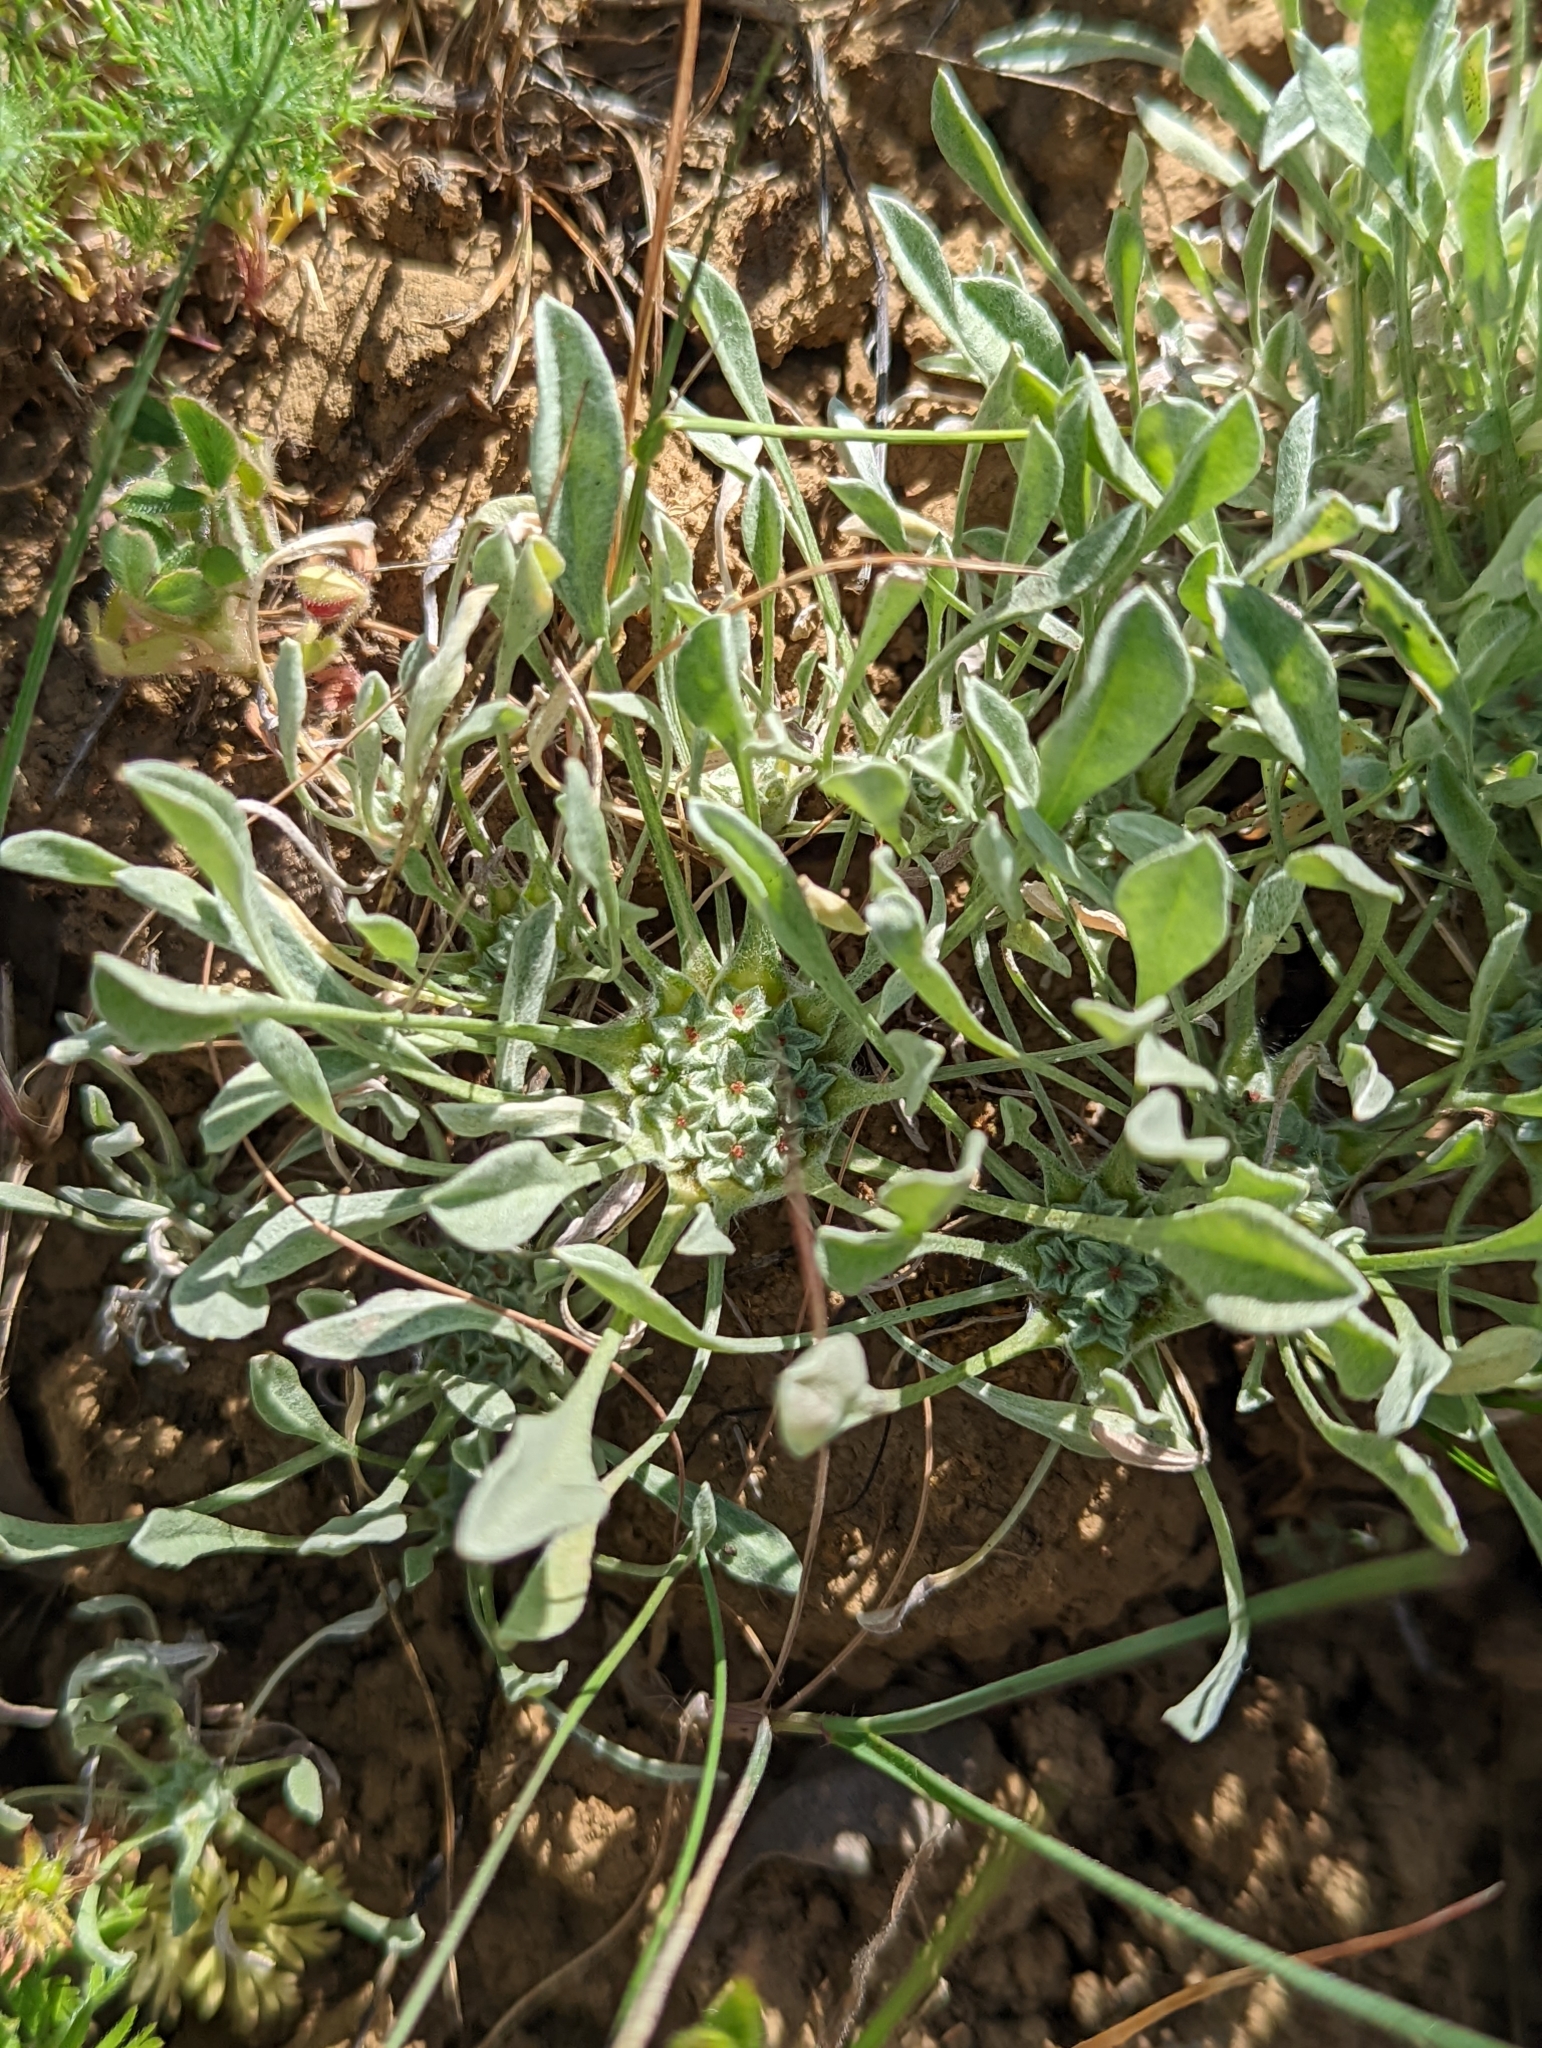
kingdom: Plantae
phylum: Tracheophyta
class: Magnoliopsida
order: Asterales
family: Asteraceae
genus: Hesperevax
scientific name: Hesperevax caulescens
